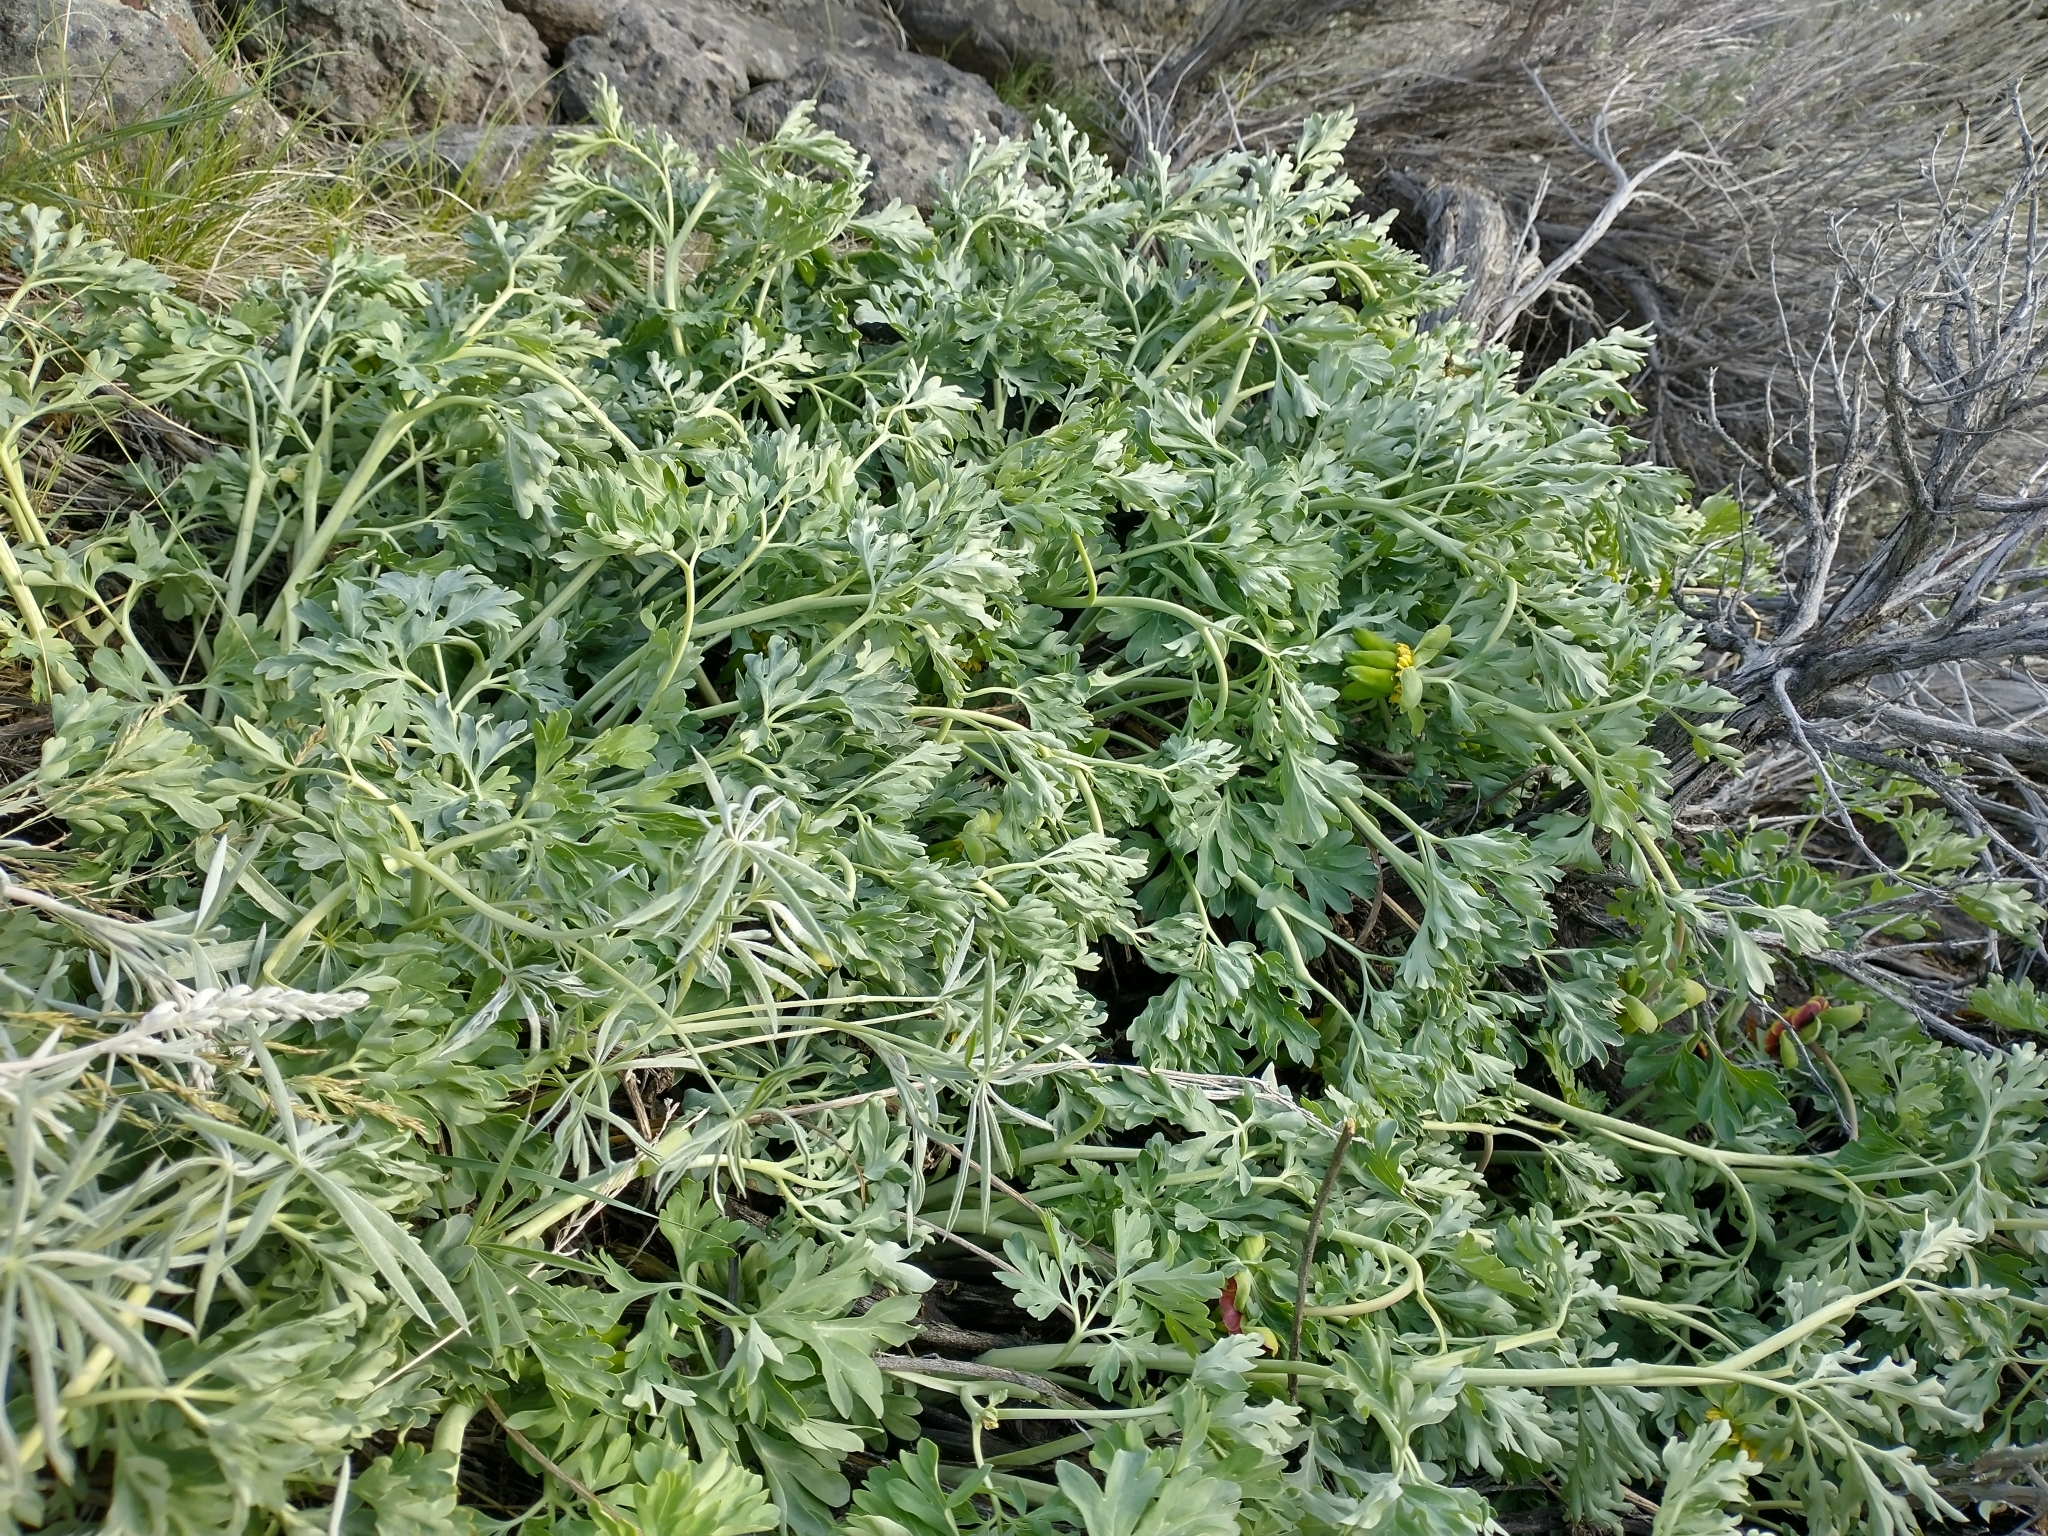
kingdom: Plantae
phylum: Tracheophyta
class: Magnoliopsida
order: Saxifragales
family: Paeoniaceae
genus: Paeonia
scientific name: Paeonia brownii
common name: Brown's peony
